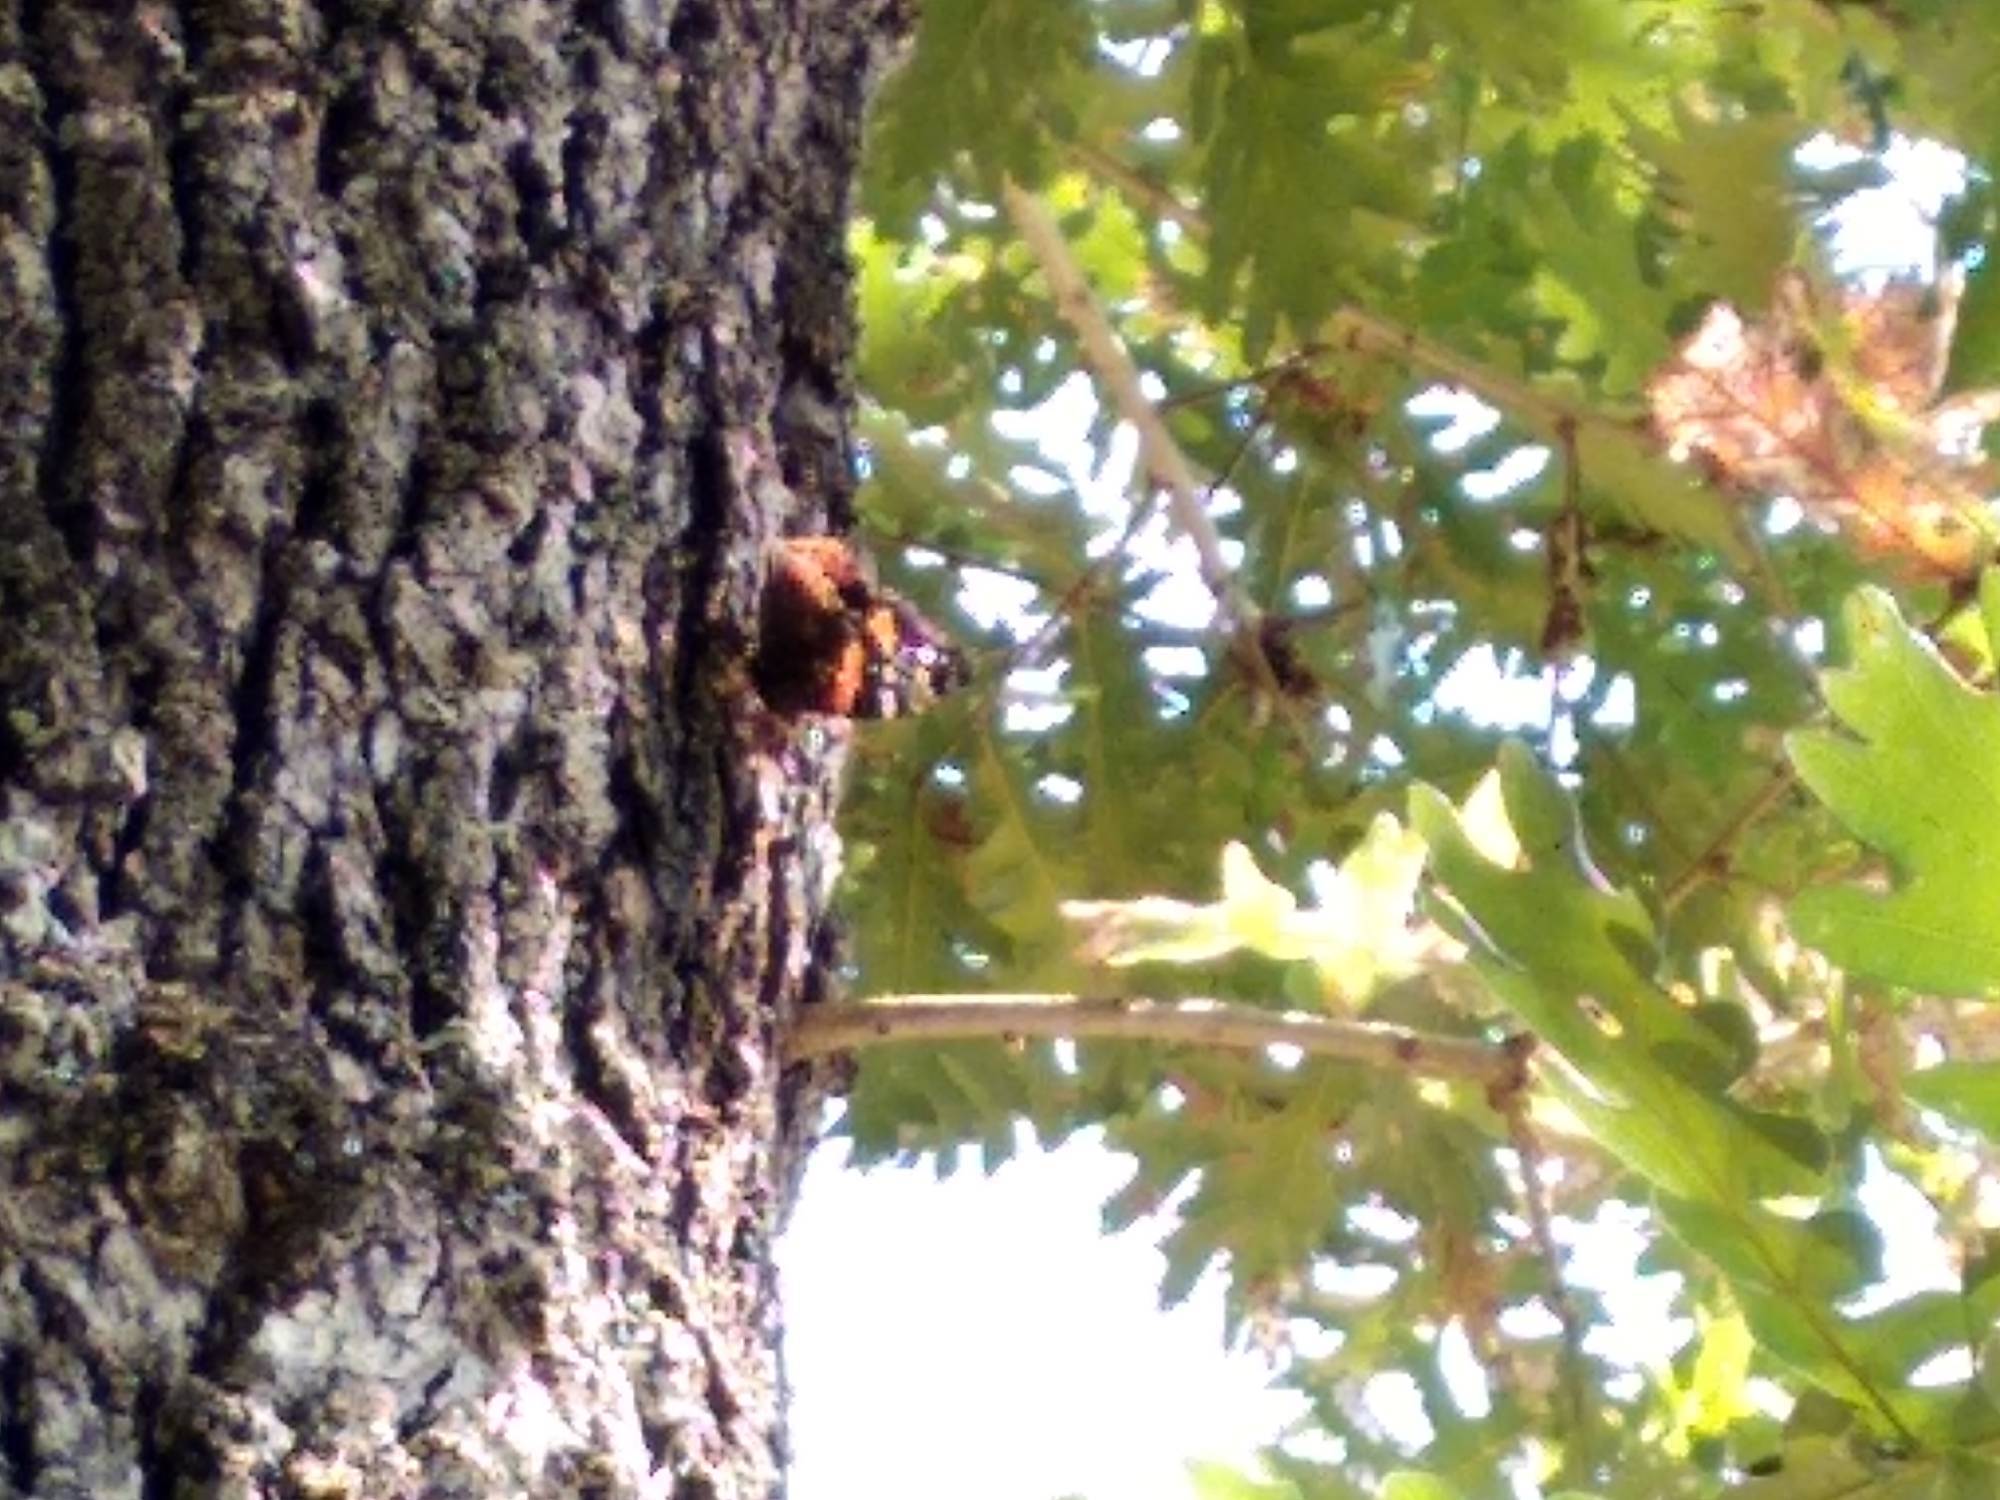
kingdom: Animalia
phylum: Arthropoda
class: Insecta
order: Hymenoptera
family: Vespidae
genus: Vespa
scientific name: Vespa crabro
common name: Hornet
